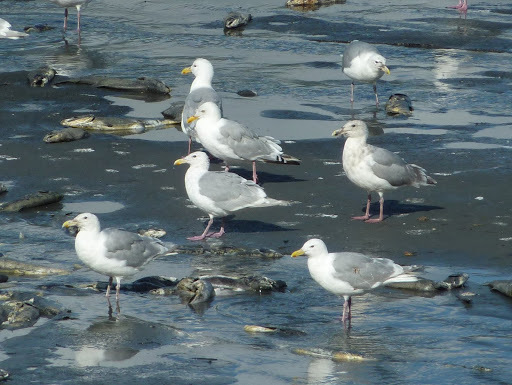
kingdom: Animalia
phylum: Chordata
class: Aves
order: Charadriiformes
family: Laridae
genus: Larus
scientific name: Larus argentatus
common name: Herring gull
